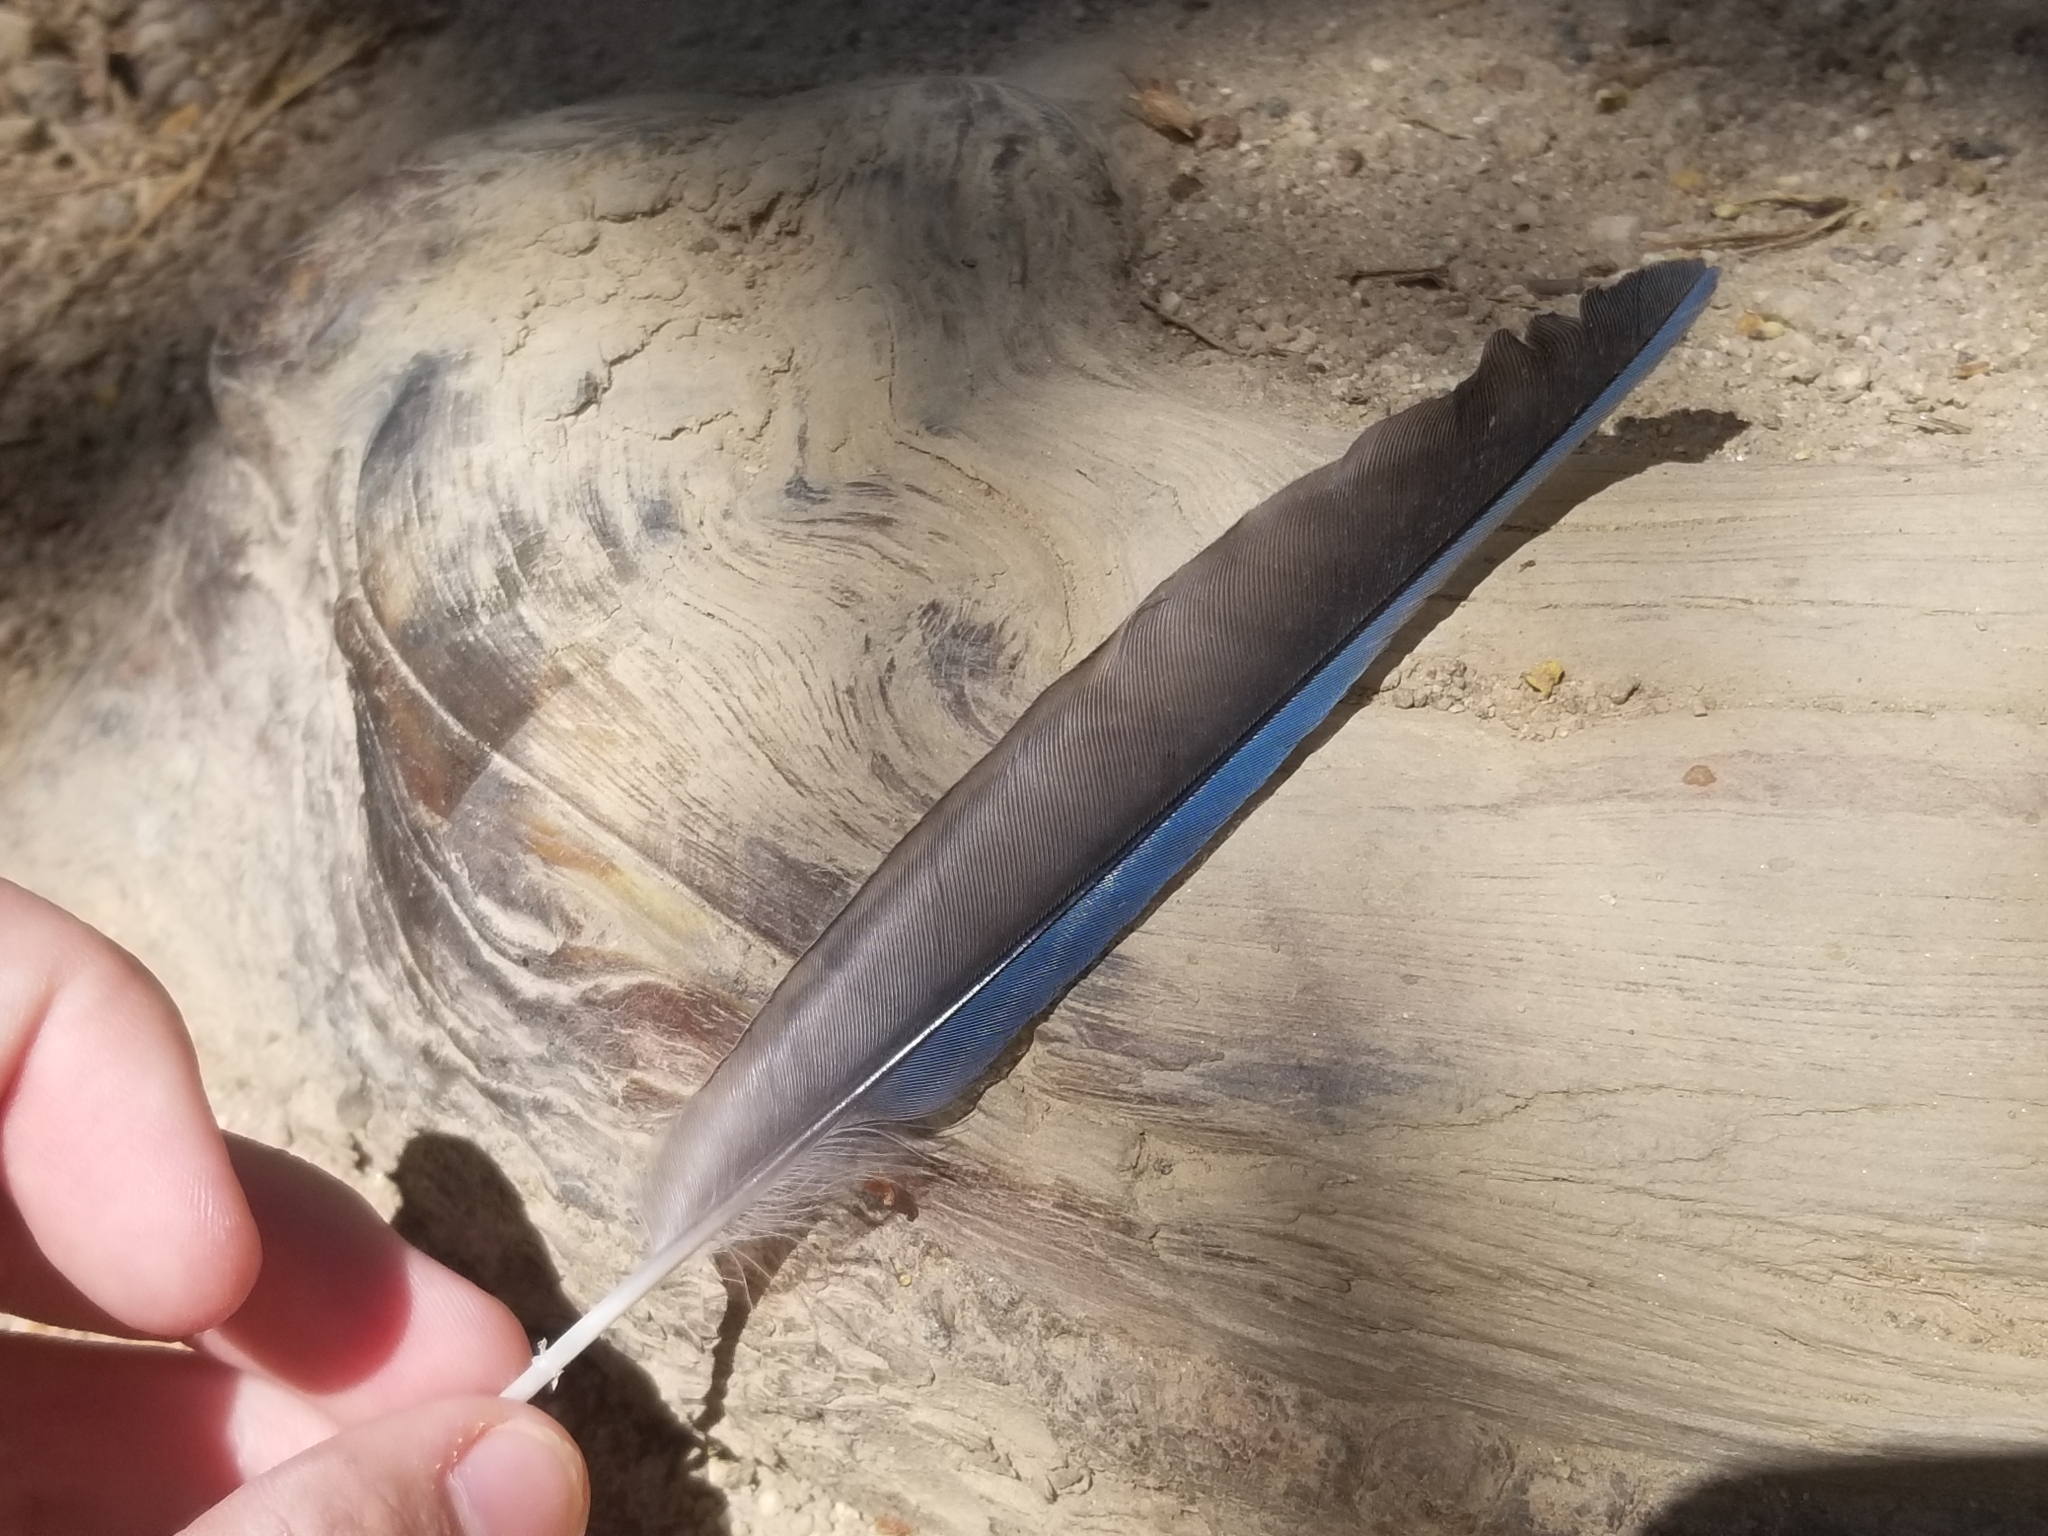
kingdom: Animalia
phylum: Chordata
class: Aves
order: Passeriformes
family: Corvidae
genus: Cyanocitta
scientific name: Cyanocitta stelleri
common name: Steller's jay
